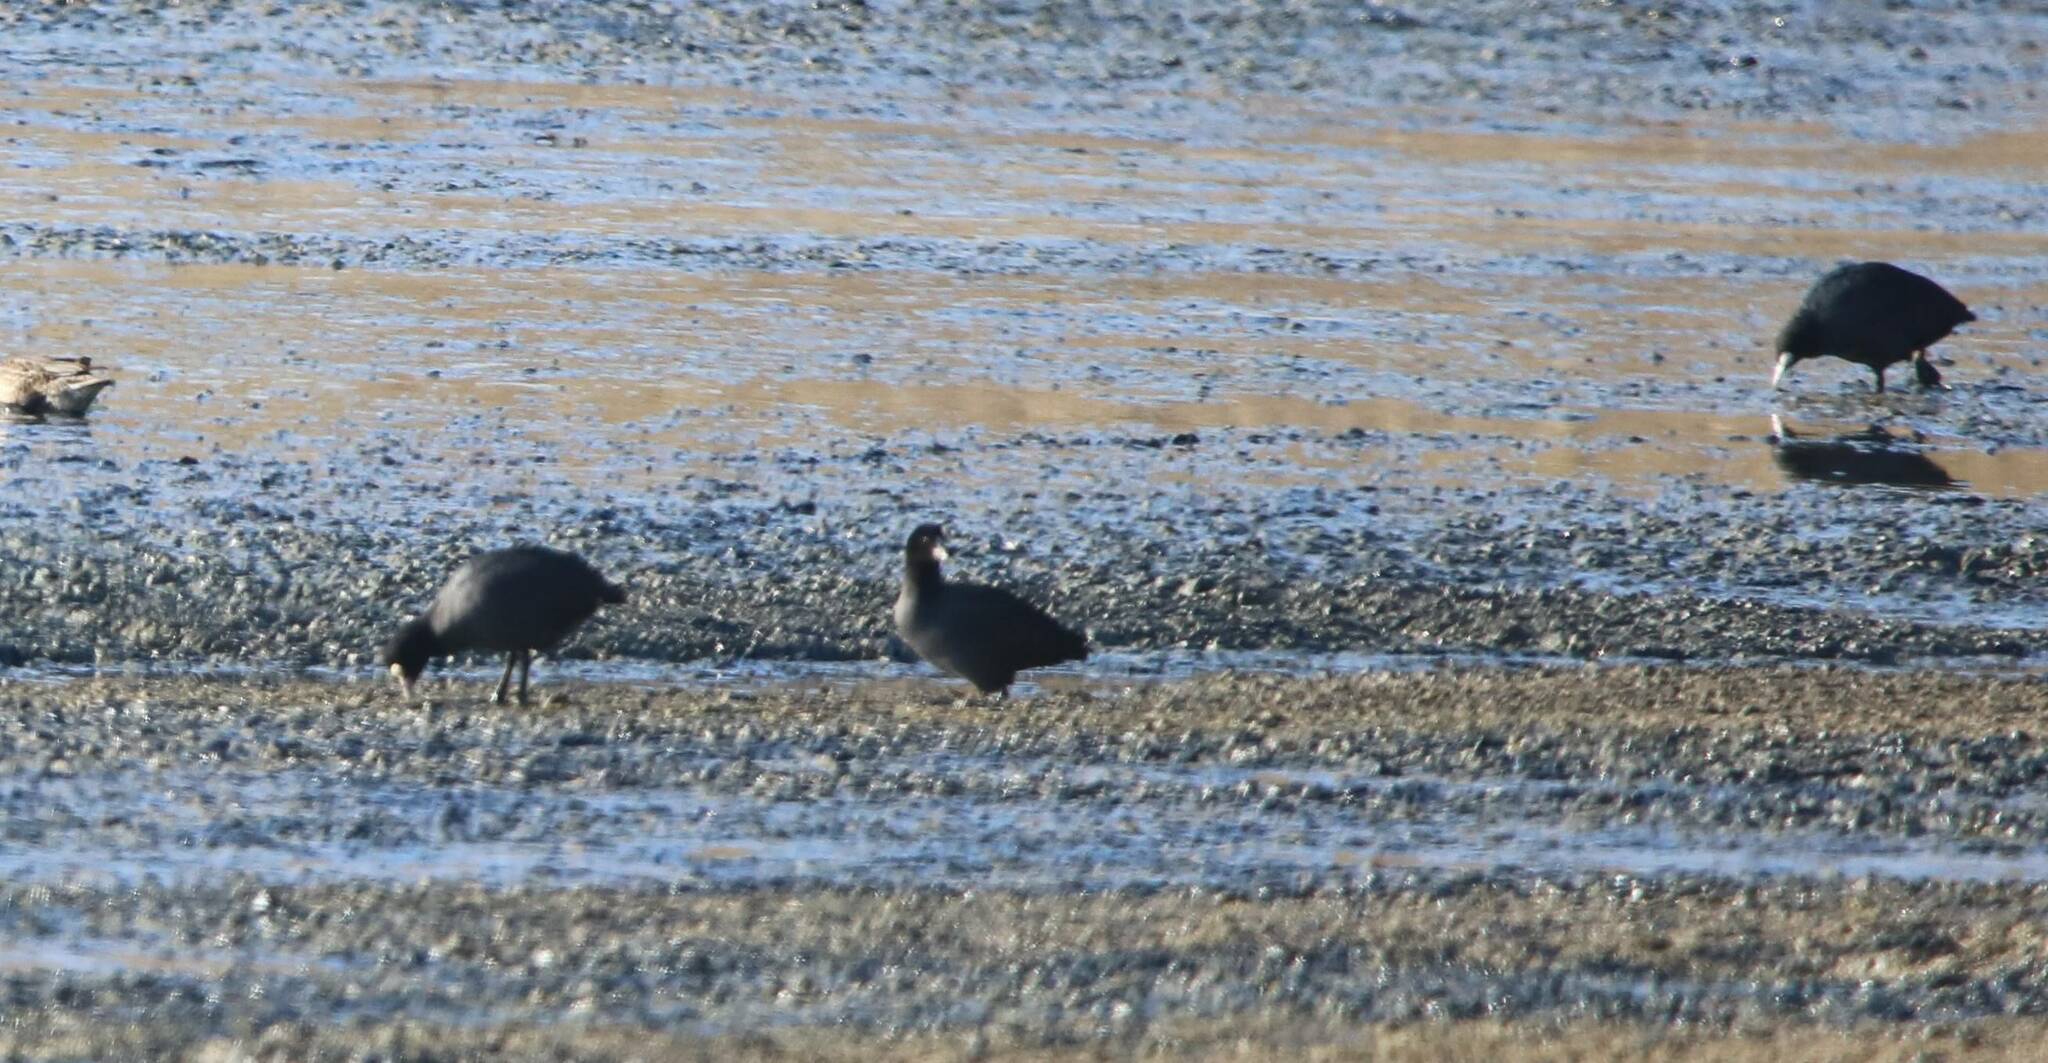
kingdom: Animalia
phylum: Chordata
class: Aves
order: Gruiformes
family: Rallidae
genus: Fulica
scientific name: Fulica atra
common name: Eurasian coot
